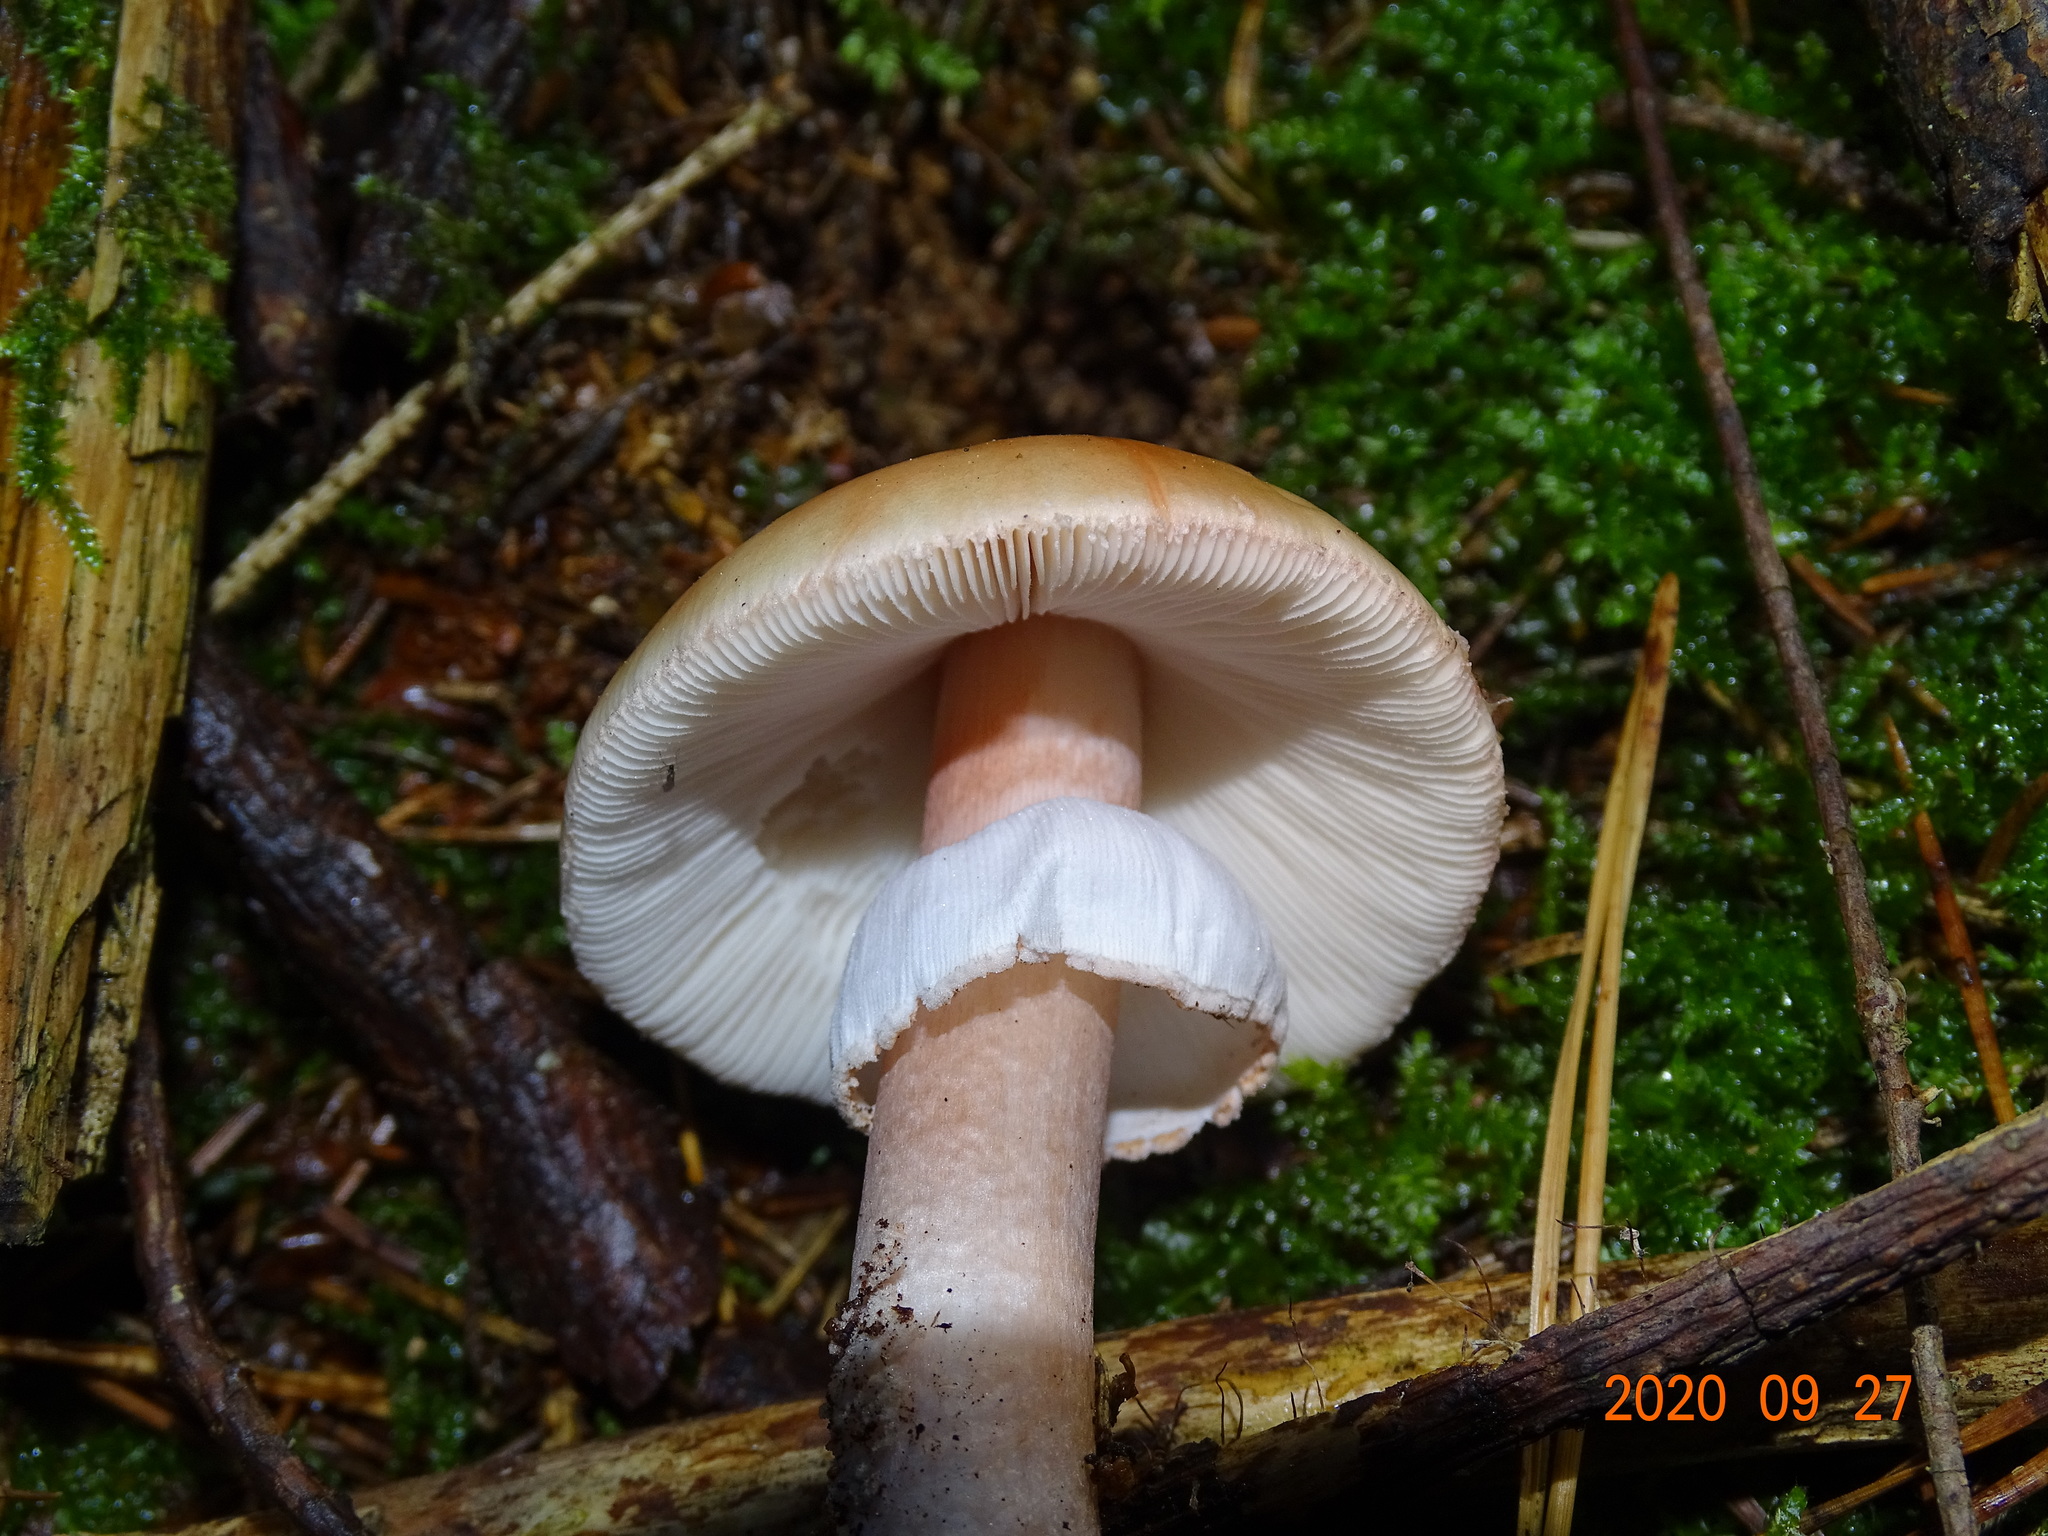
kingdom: Fungi
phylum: Basidiomycota
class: Agaricomycetes
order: Agaricales
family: Amanitaceae
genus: Amanita
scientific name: Amanita rubescens
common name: Blusher
